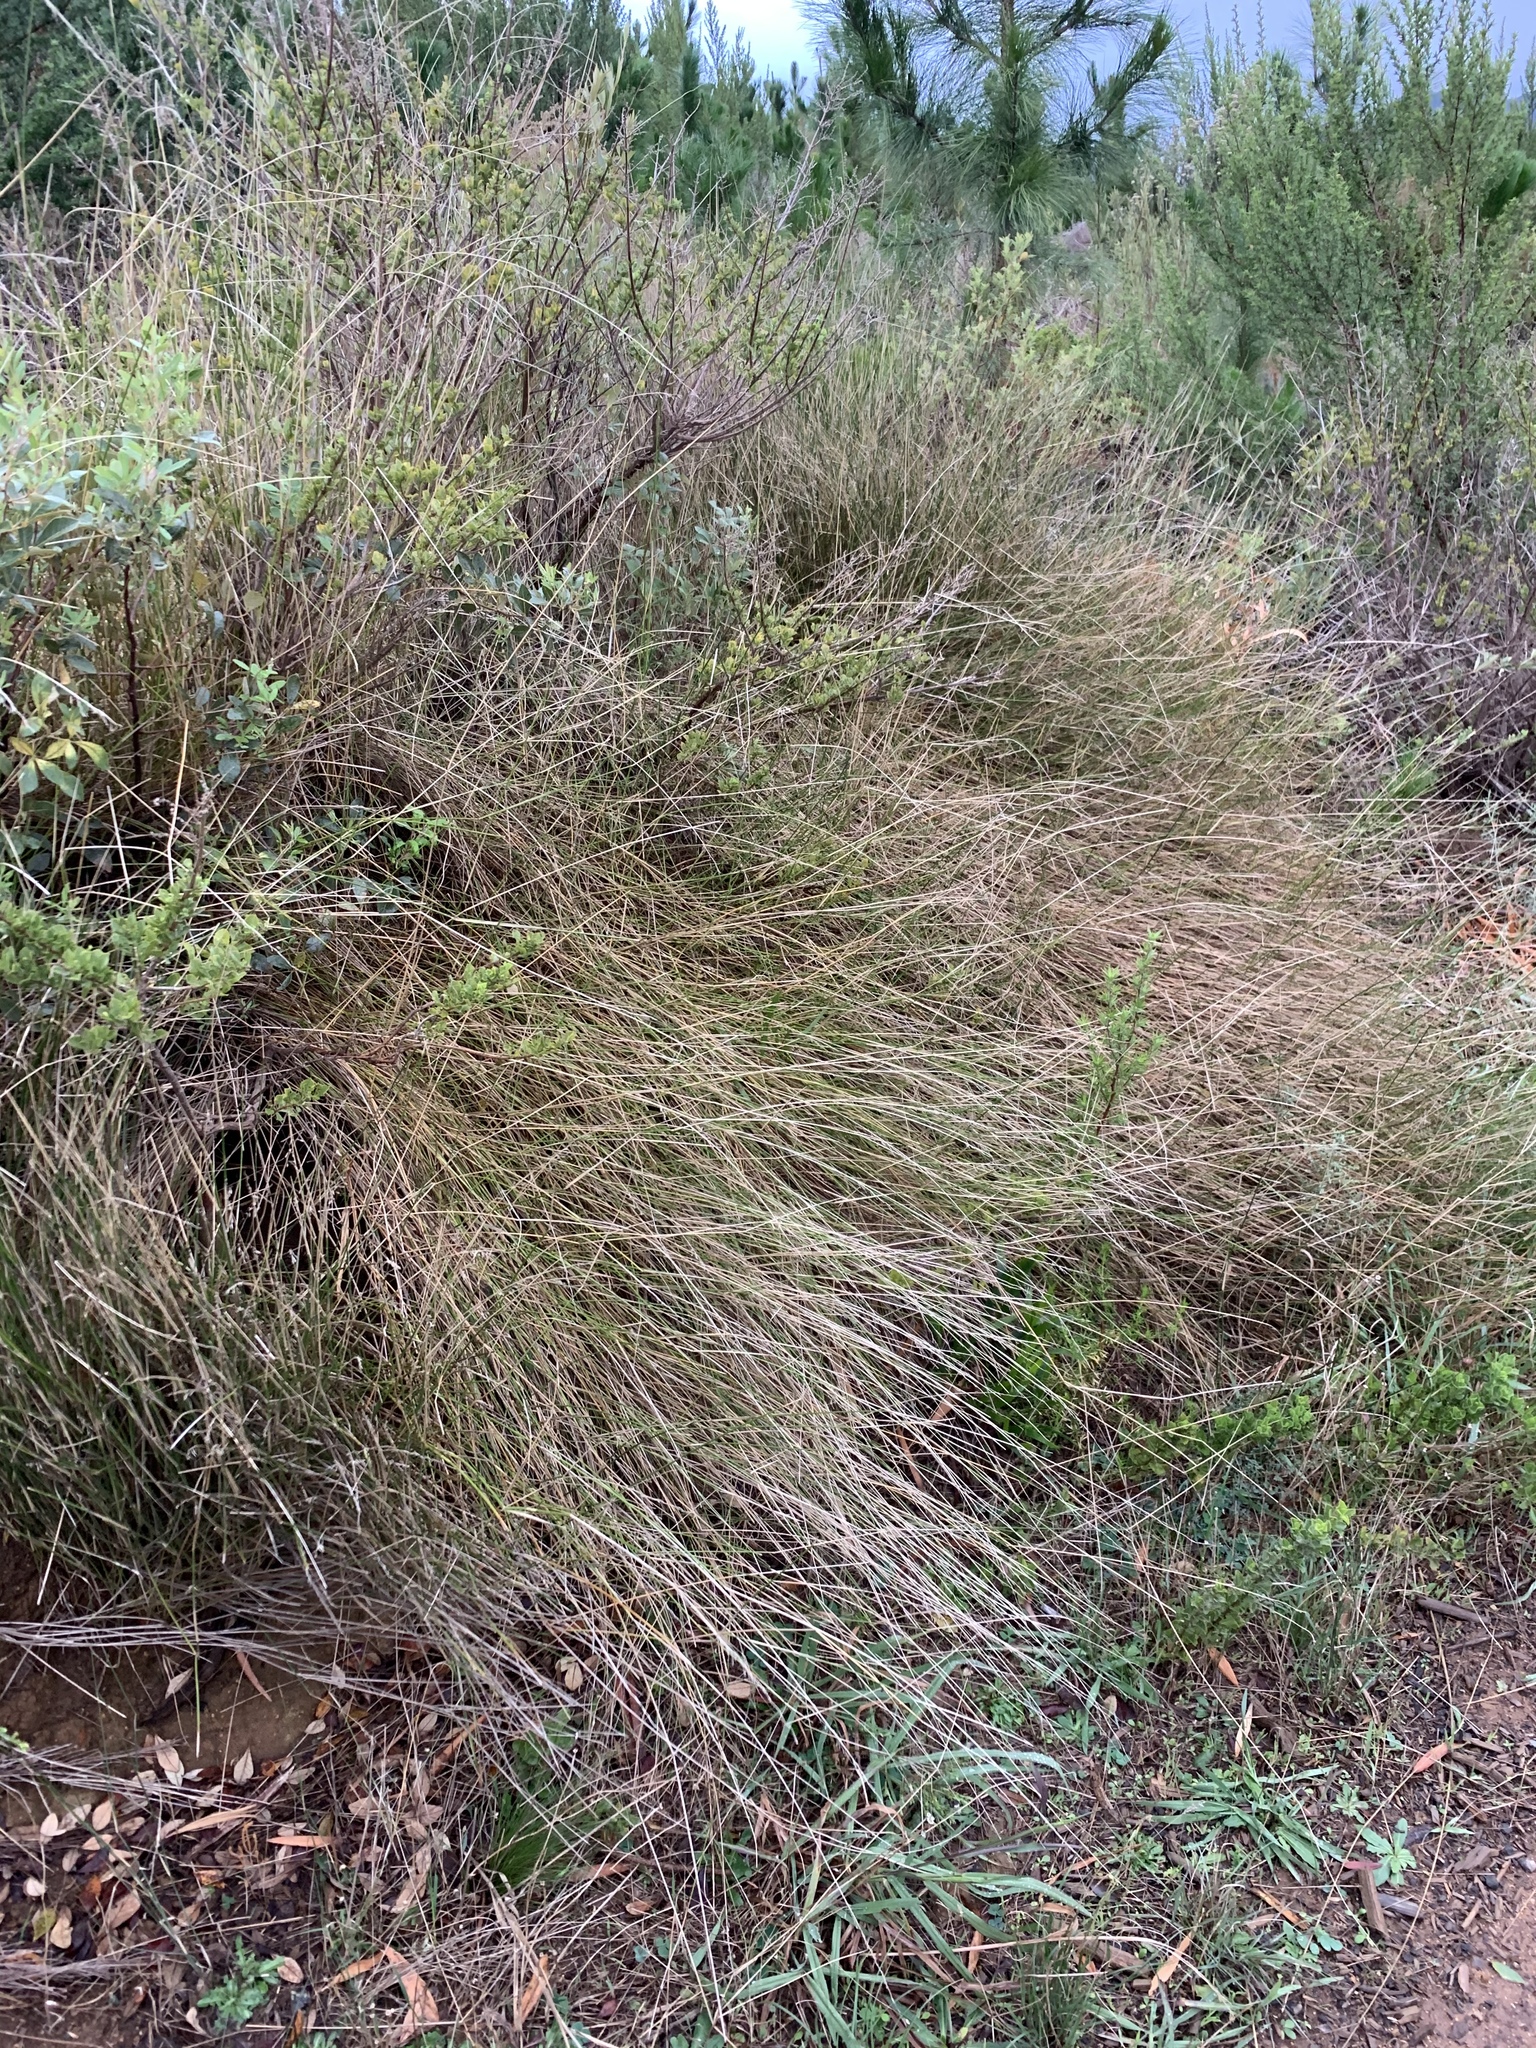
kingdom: Plantae
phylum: Tracheophyta
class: Liliopsida
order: Poales
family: Poaceae
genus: Ehrharta
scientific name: Ehrharta ramosa
